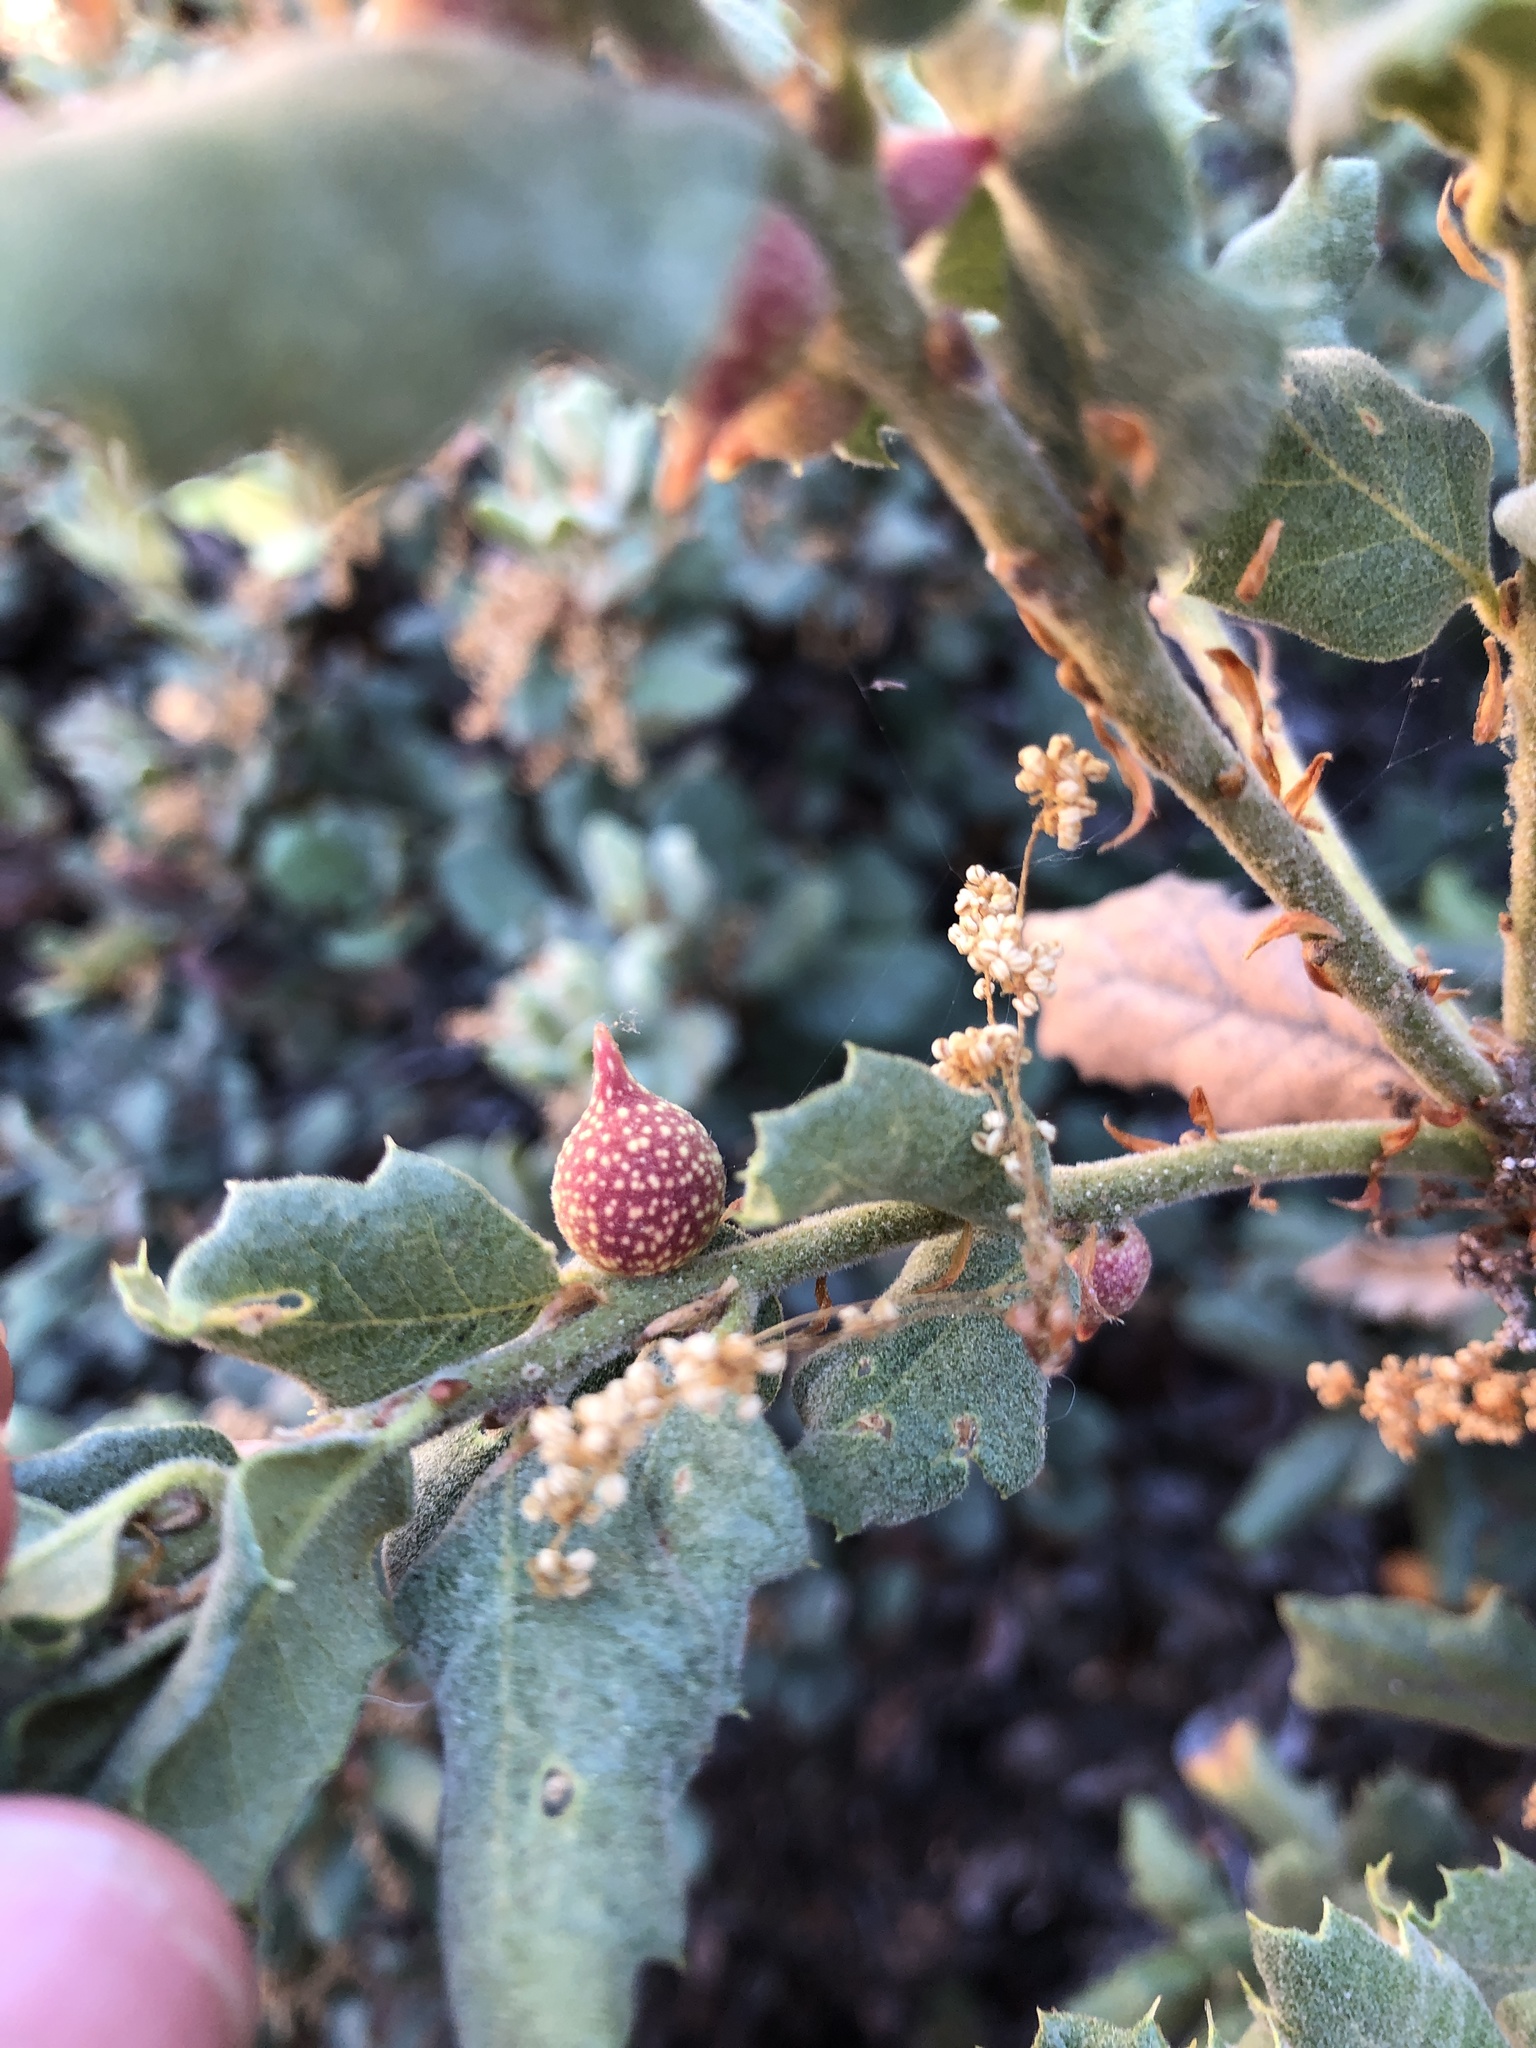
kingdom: Plantae
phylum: Tracheophyta
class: Magnoliopsida
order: Fagales
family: Fagaceae
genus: Quercus
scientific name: Quercus durata
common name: Leather oak
